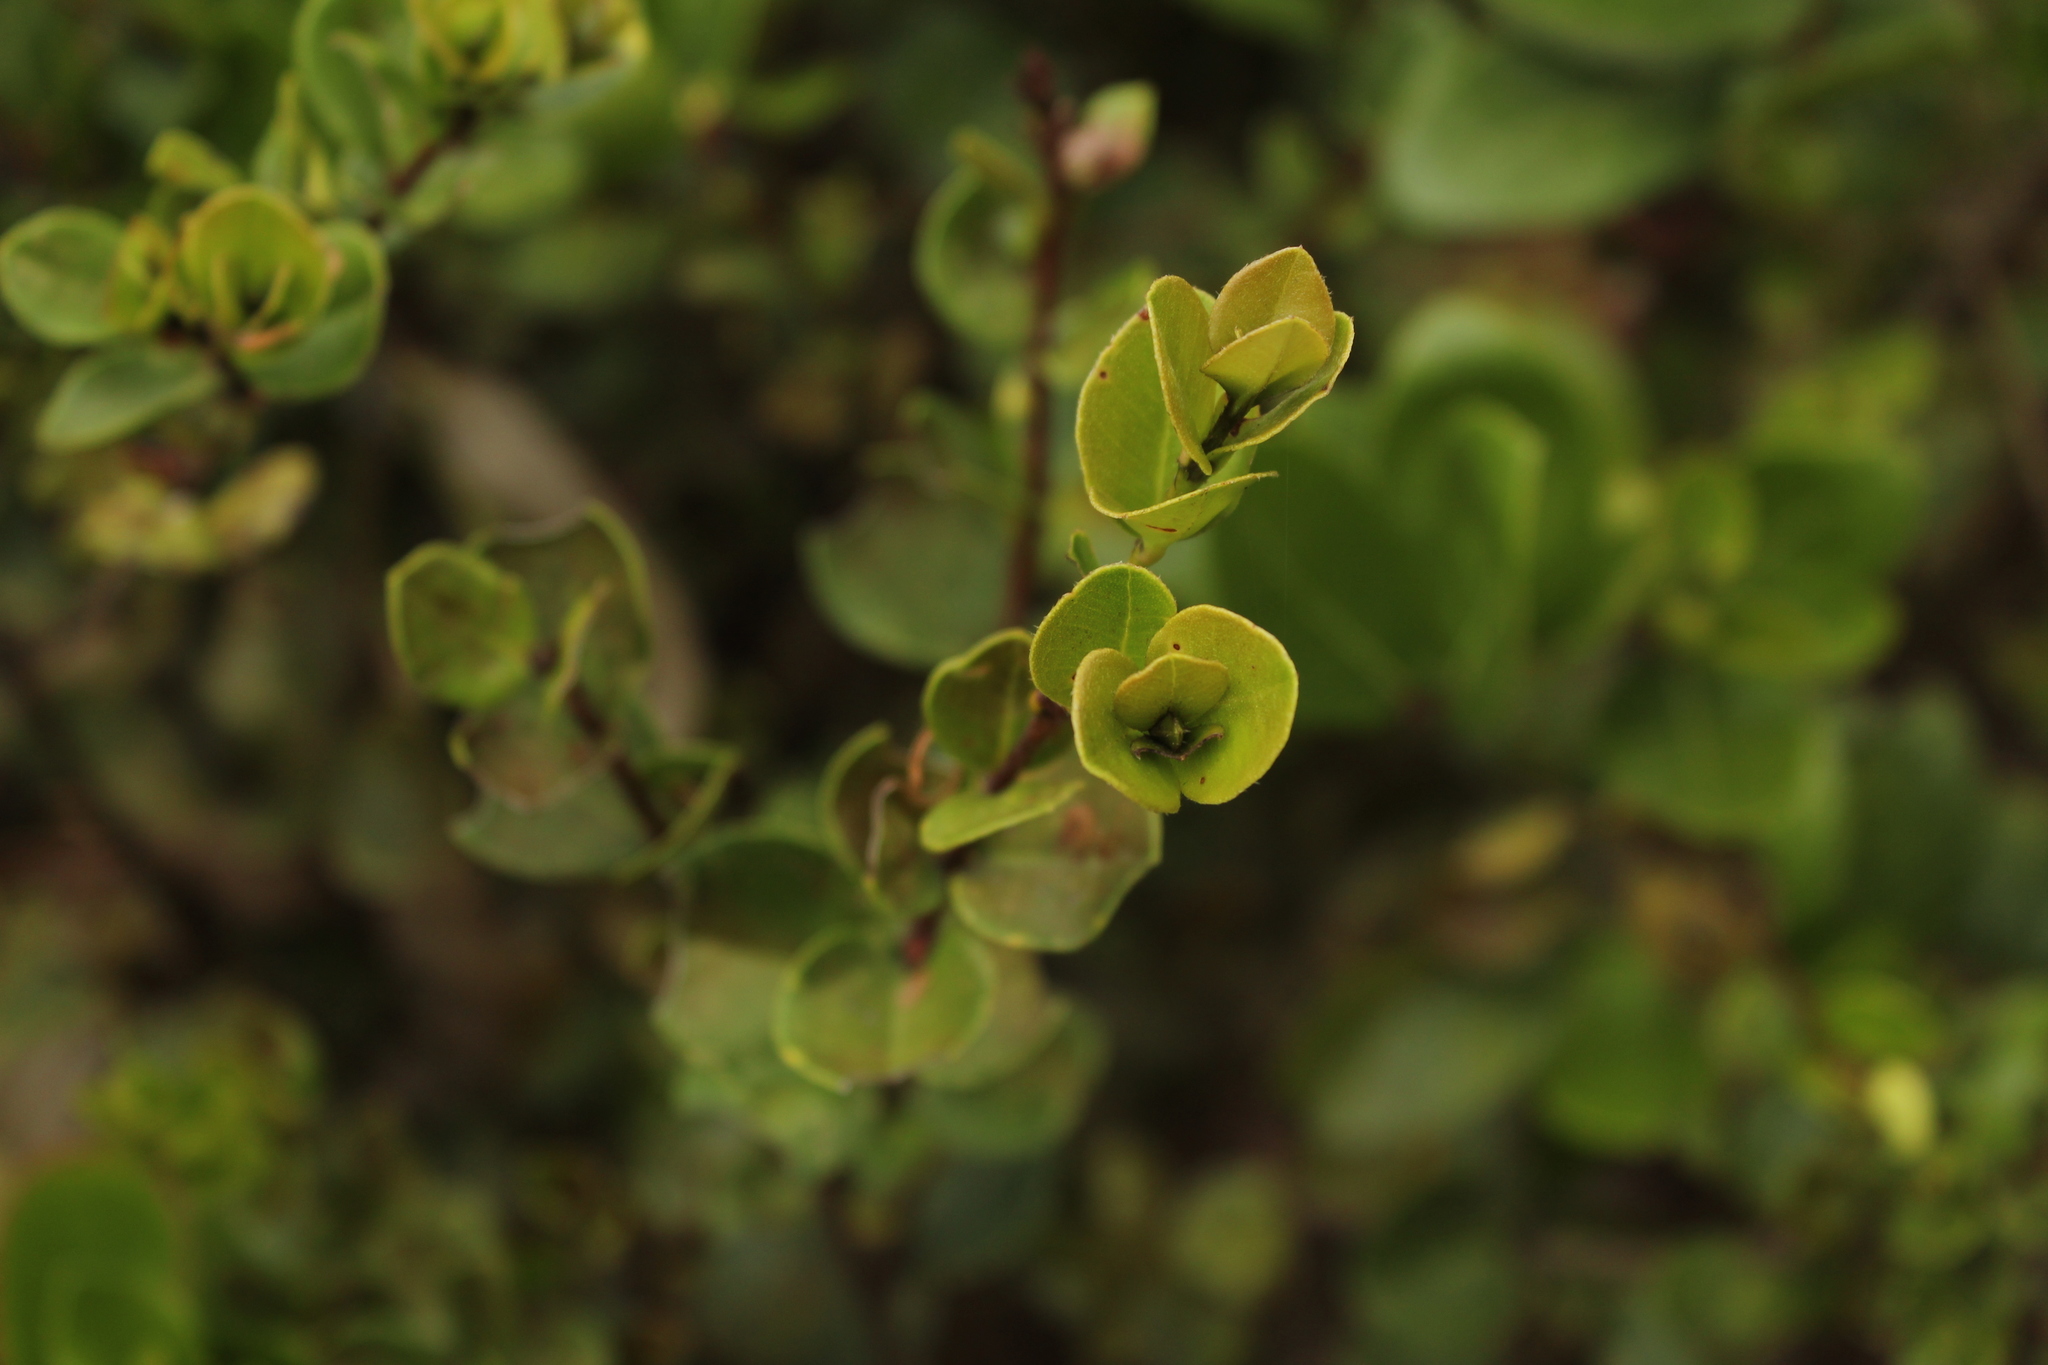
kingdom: Plantae
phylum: Tracheophyta
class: Magnoliopsida
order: Myrtales
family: Myrtaceae
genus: Myrcianthes
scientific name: Myrcianthes leucoxyla
